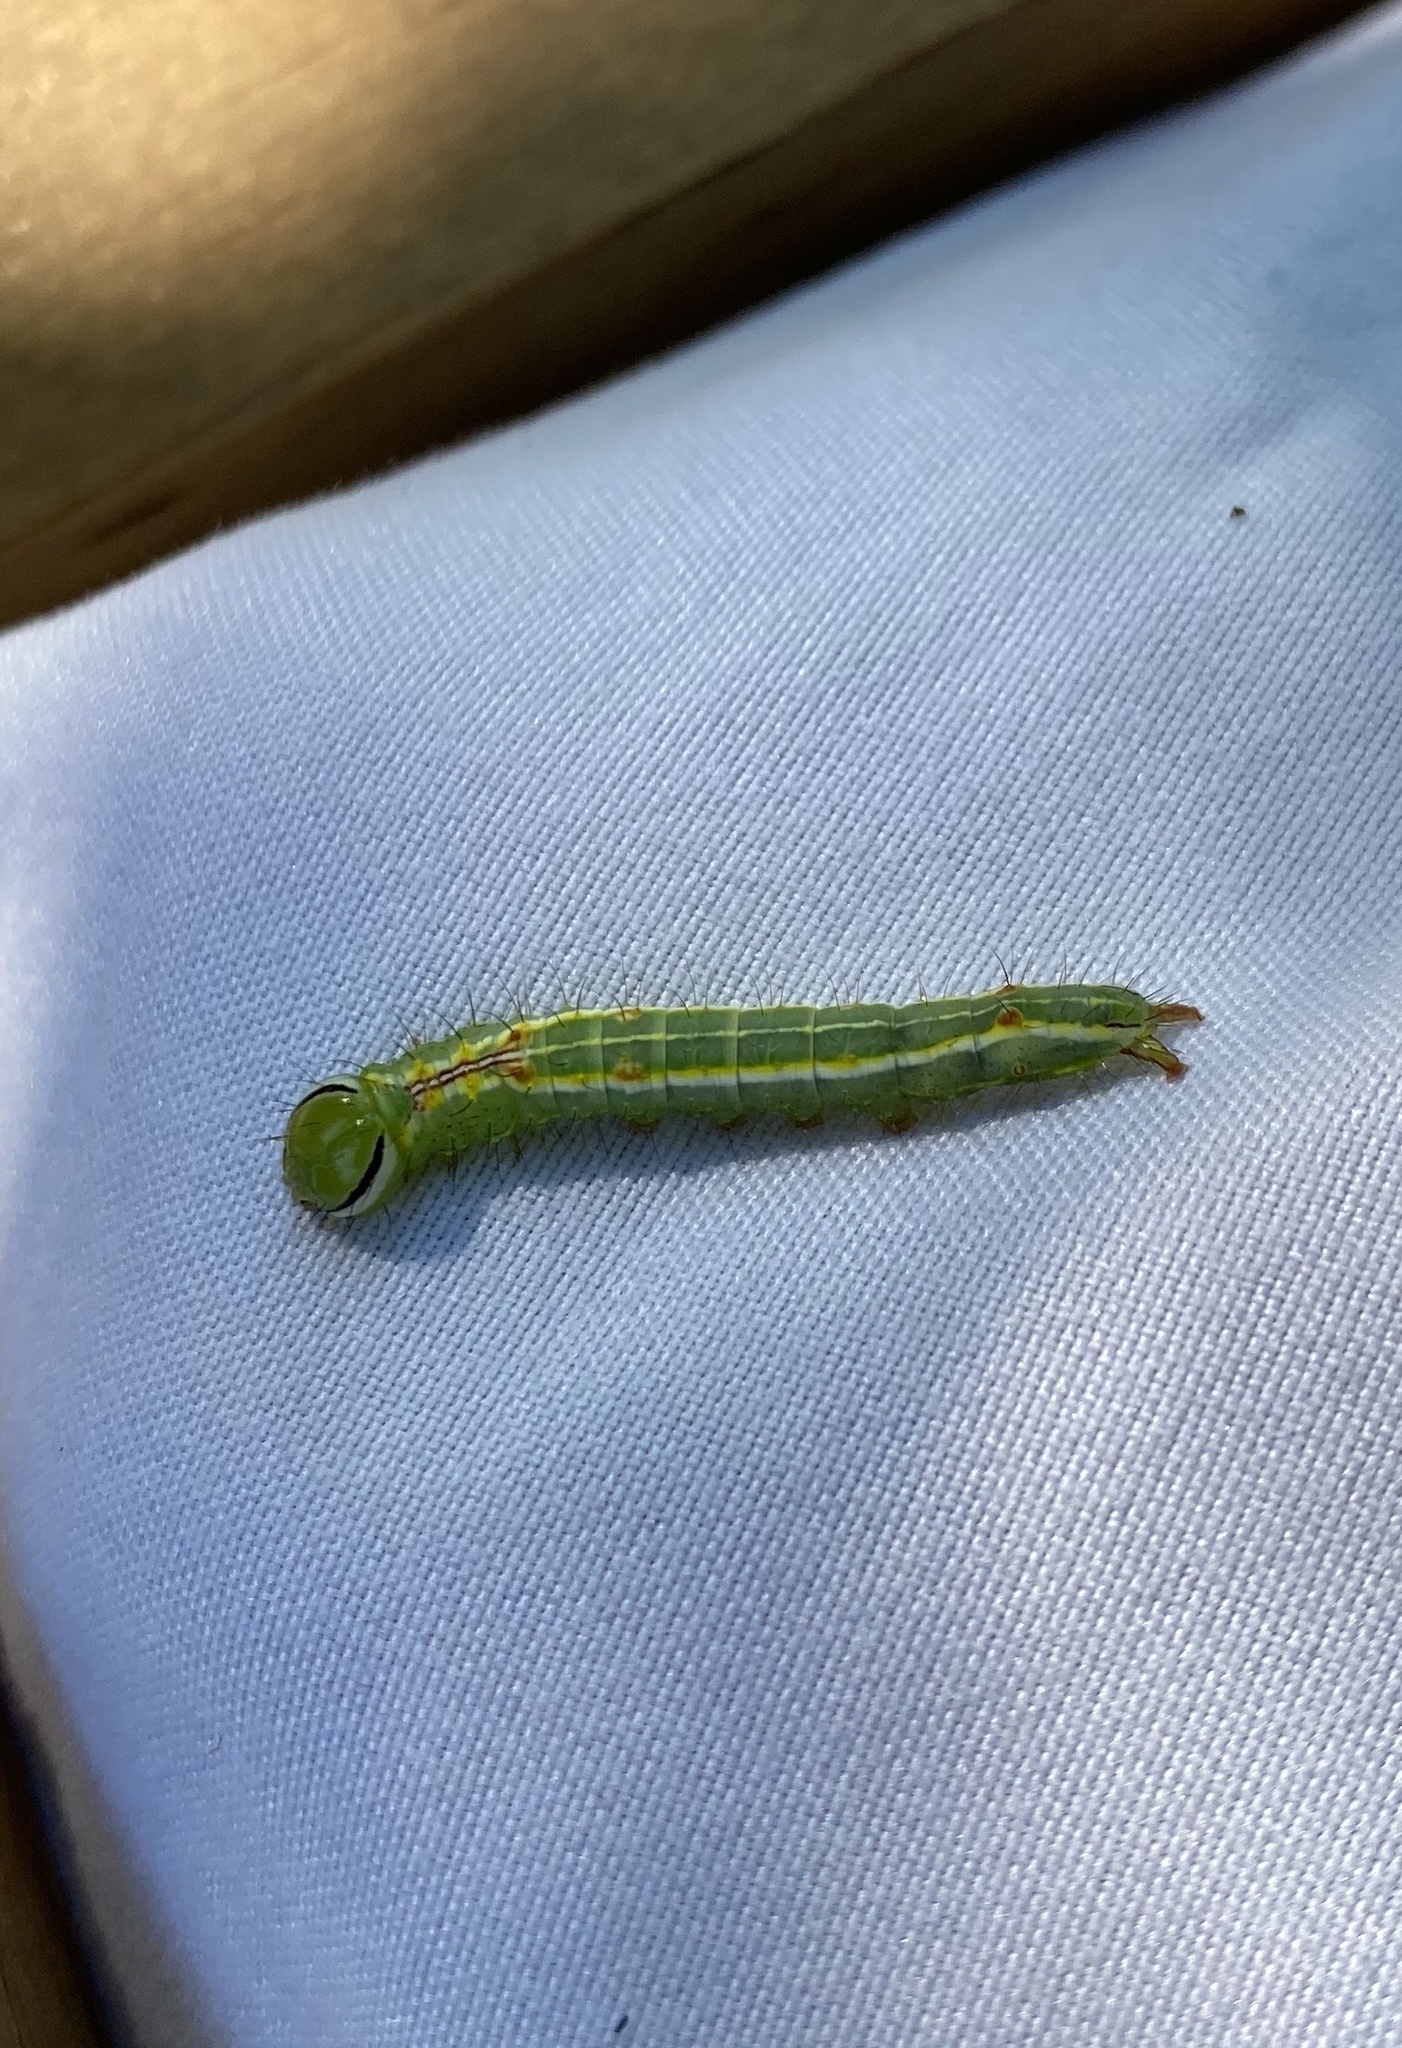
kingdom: Animalia
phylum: Arthropoda
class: Insecta
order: Lepidoptera
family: Notodontidae
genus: Lochmaeus
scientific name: Lochmaeus manteo
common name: Variable oakleaf caterpillar moth
